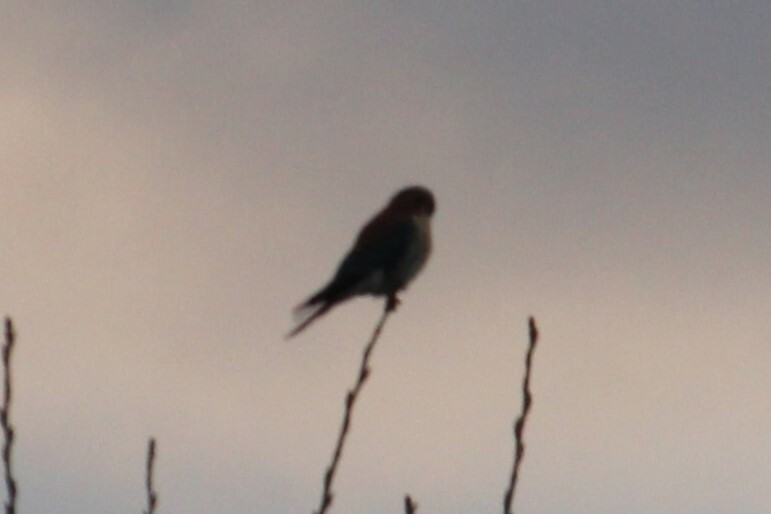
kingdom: Animalia
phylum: Chordata
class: Aves
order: Falconiformes
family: Falconidae
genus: Falco
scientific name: Falco sparverius
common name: American kestrel
